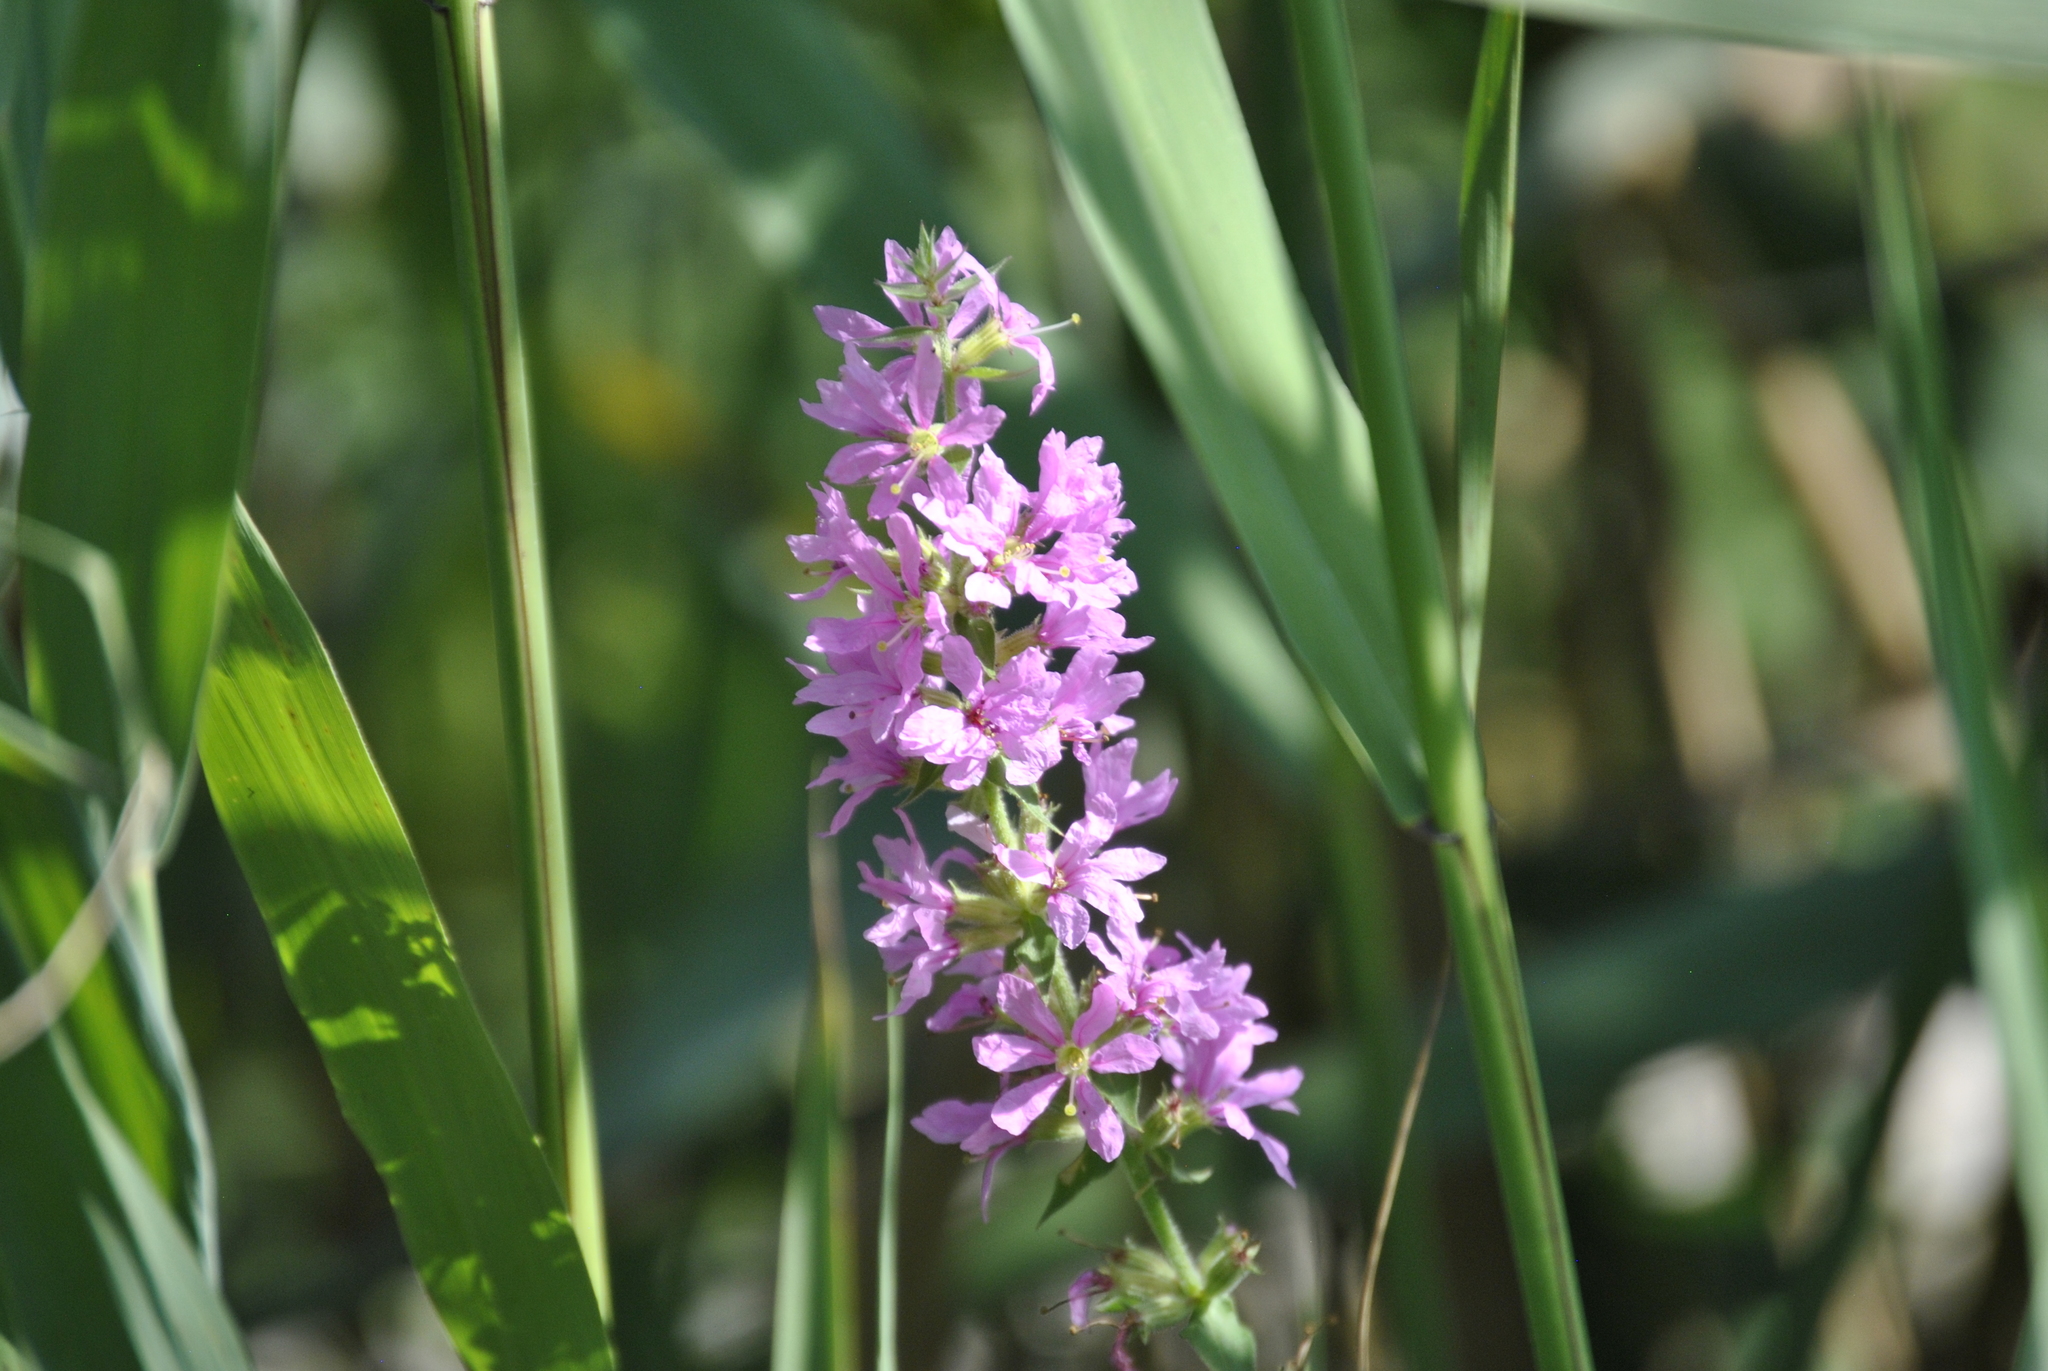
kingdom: Plantae
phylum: Tracheophyta
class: Magnoliopsida
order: Myrtales
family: Lythraceae
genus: Lythrum
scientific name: Lythrum salicaria
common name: Purple loosestrife
